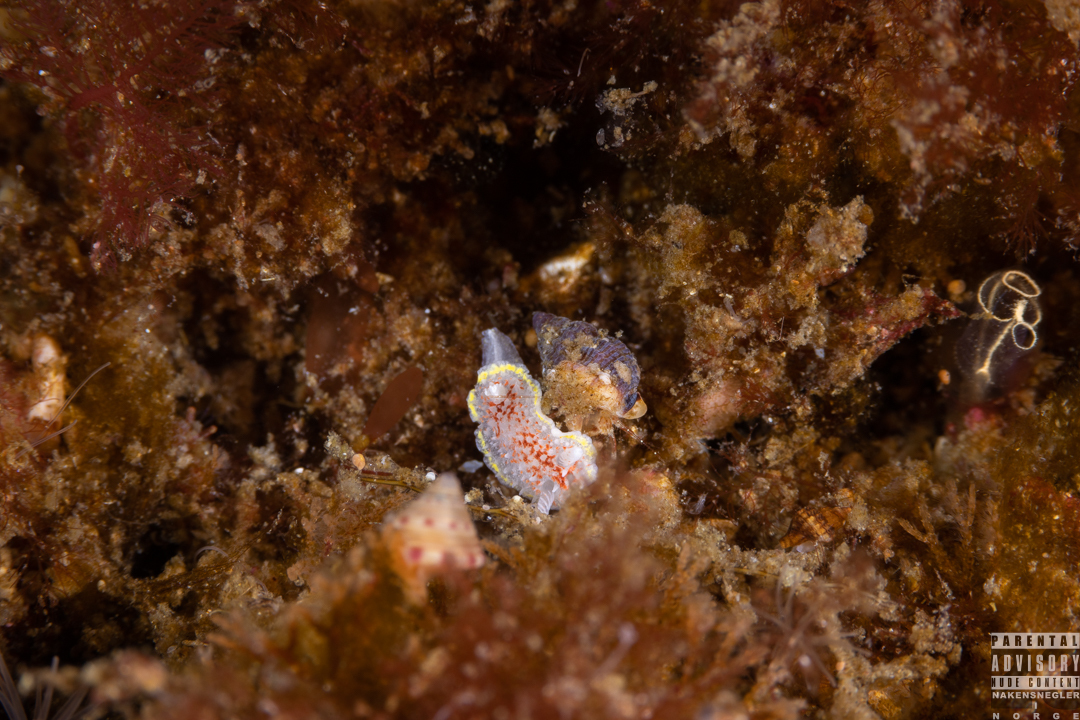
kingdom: Animalia
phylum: Mollusca
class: Gastropoda
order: Nudibranchia
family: Calycidorididae
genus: Diaphorodoris
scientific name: Diaphorodoris luteocincta
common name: Fried egg nudibranch
